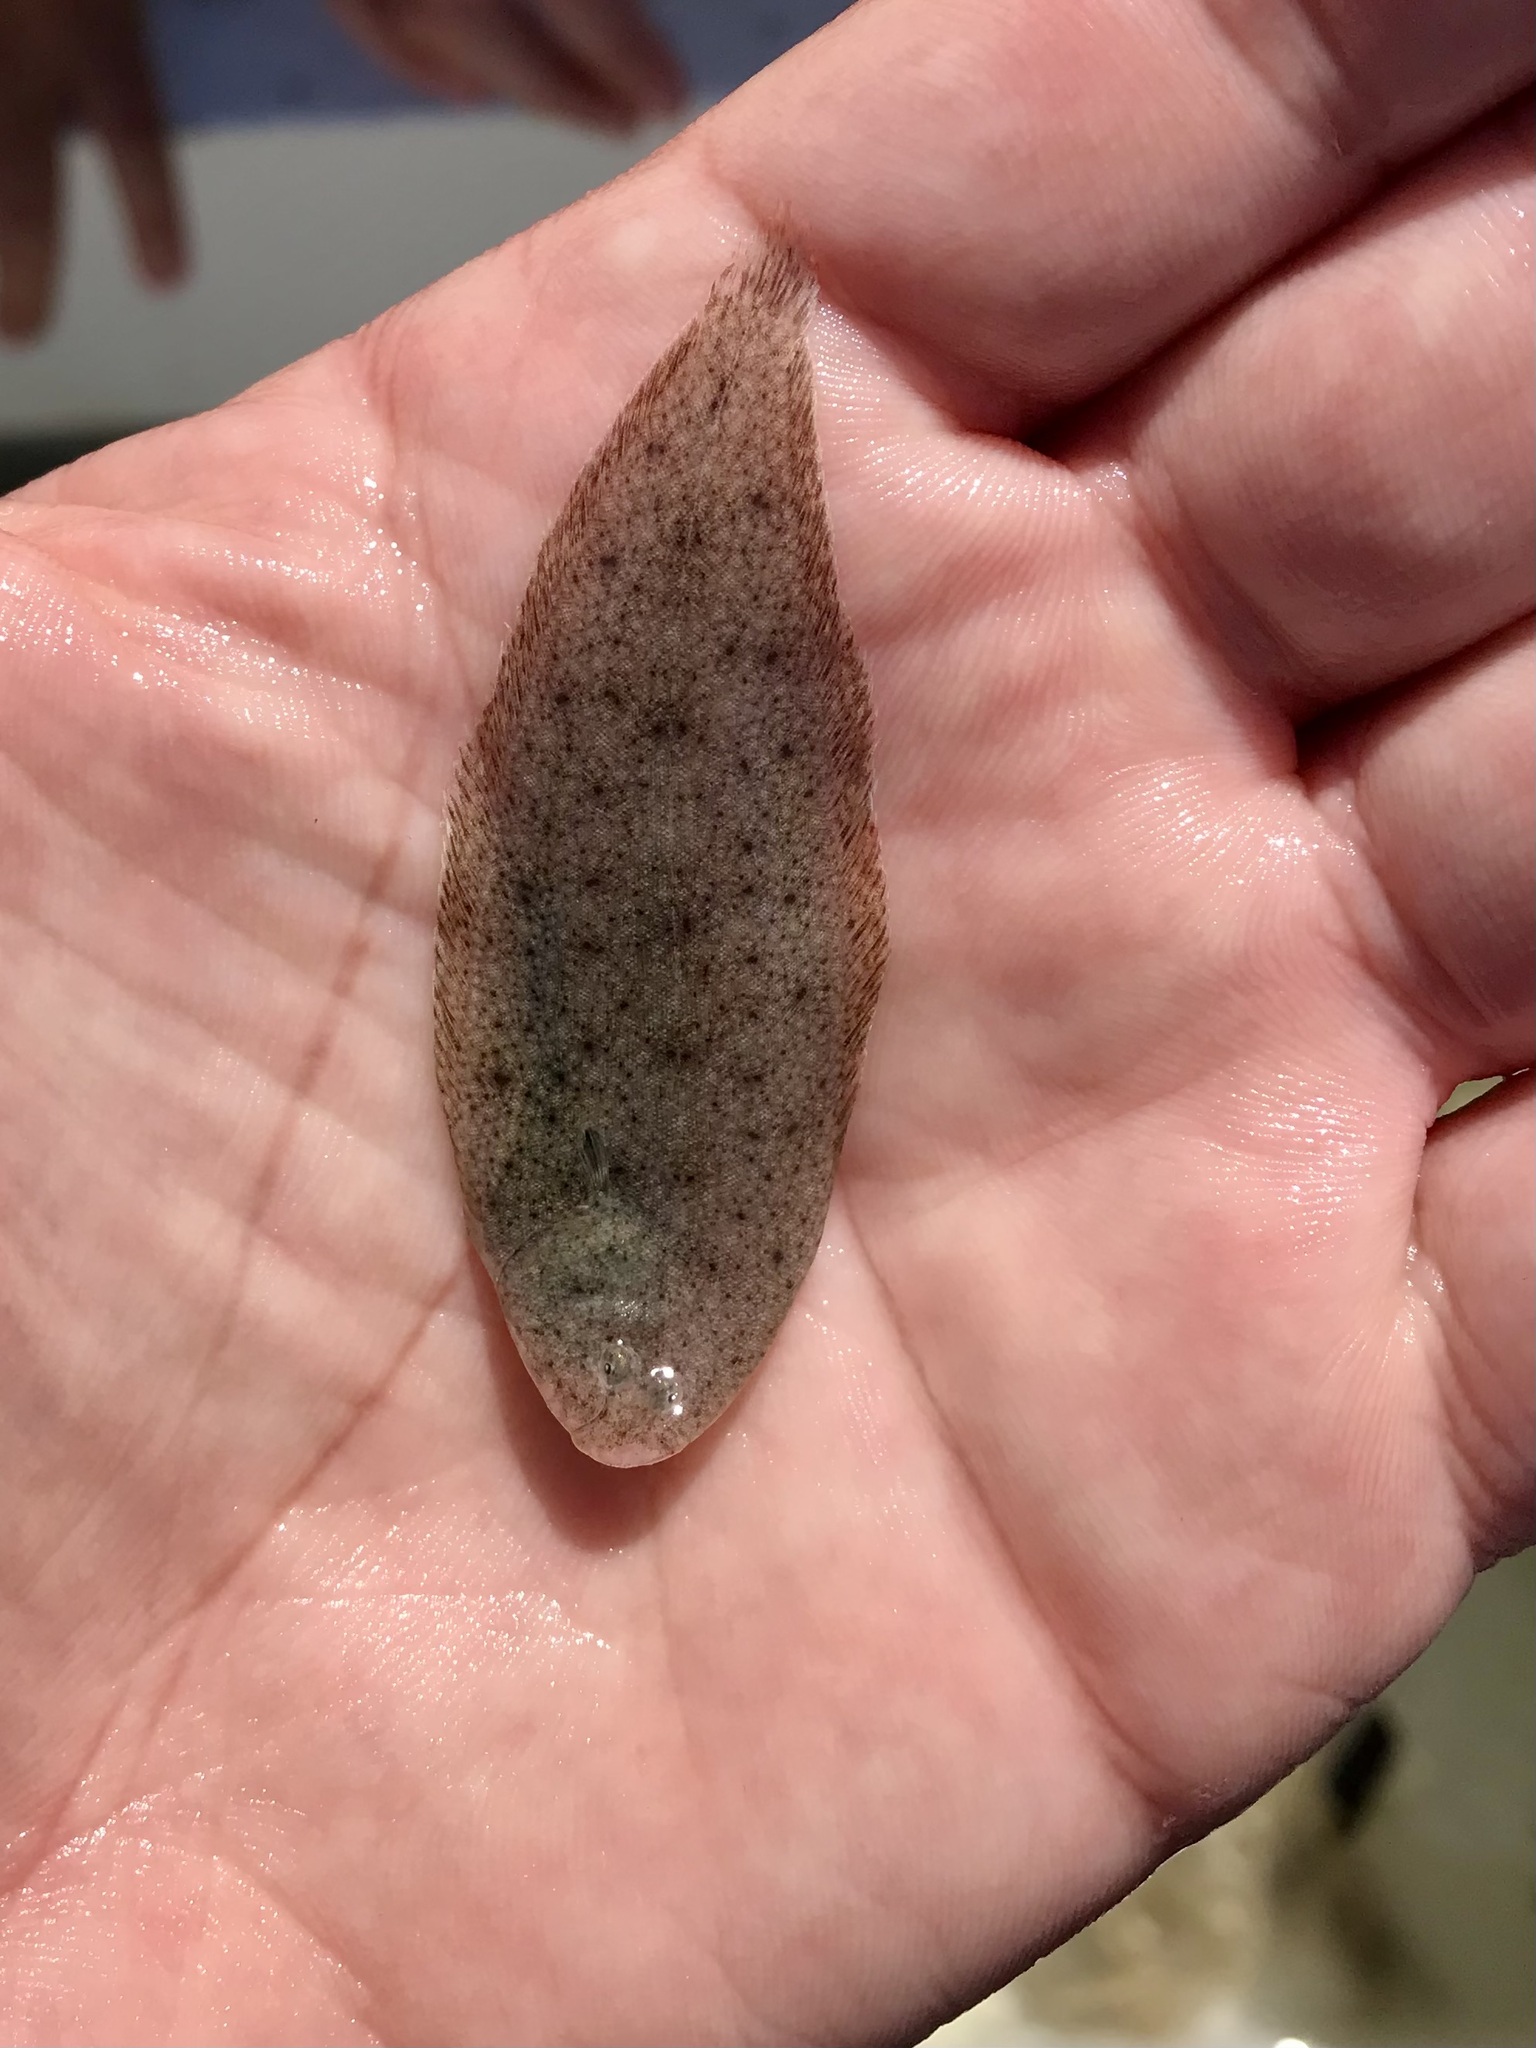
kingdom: Animalia
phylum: Chordata
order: Pleuronectiformes
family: Soleidae
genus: Solea
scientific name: Solea solea
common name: Sole
